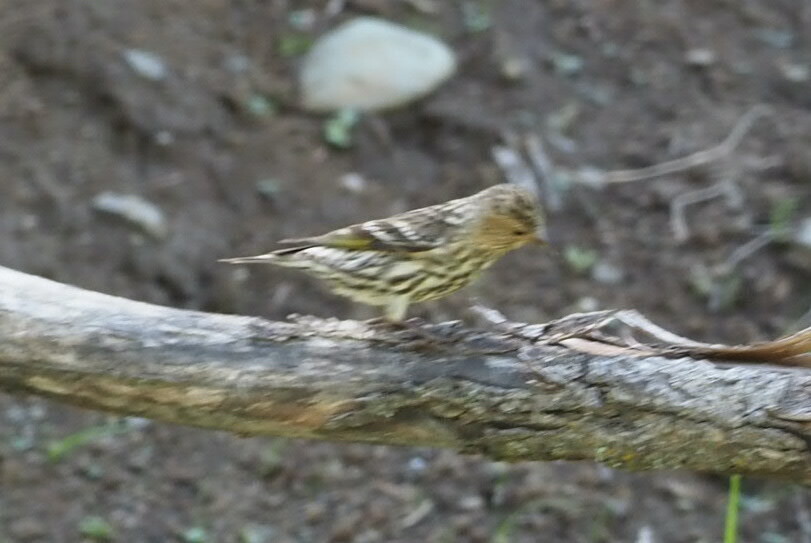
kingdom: Animalia
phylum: Chordata
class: Aves
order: Passeriformes
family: Fringillidae
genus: Spinus
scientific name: Spinus pinus
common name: Pine siskin
